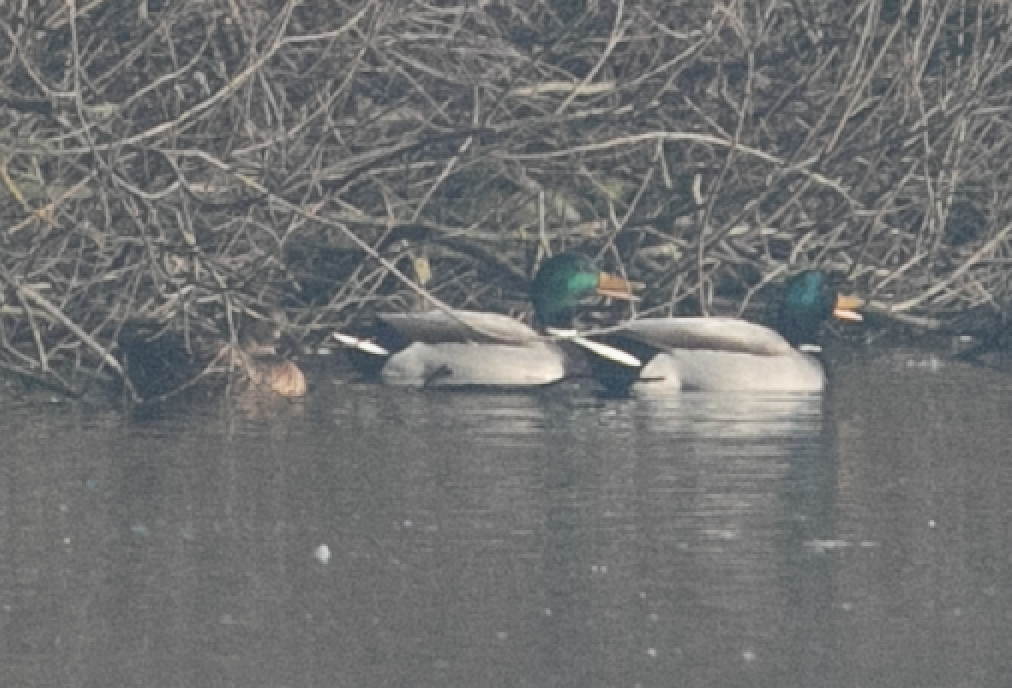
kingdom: Animalia
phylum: Chordata
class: Aves
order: Anseriformes
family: Anatidae
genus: Anas
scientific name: Anas platyrhynchos
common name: Mallard
